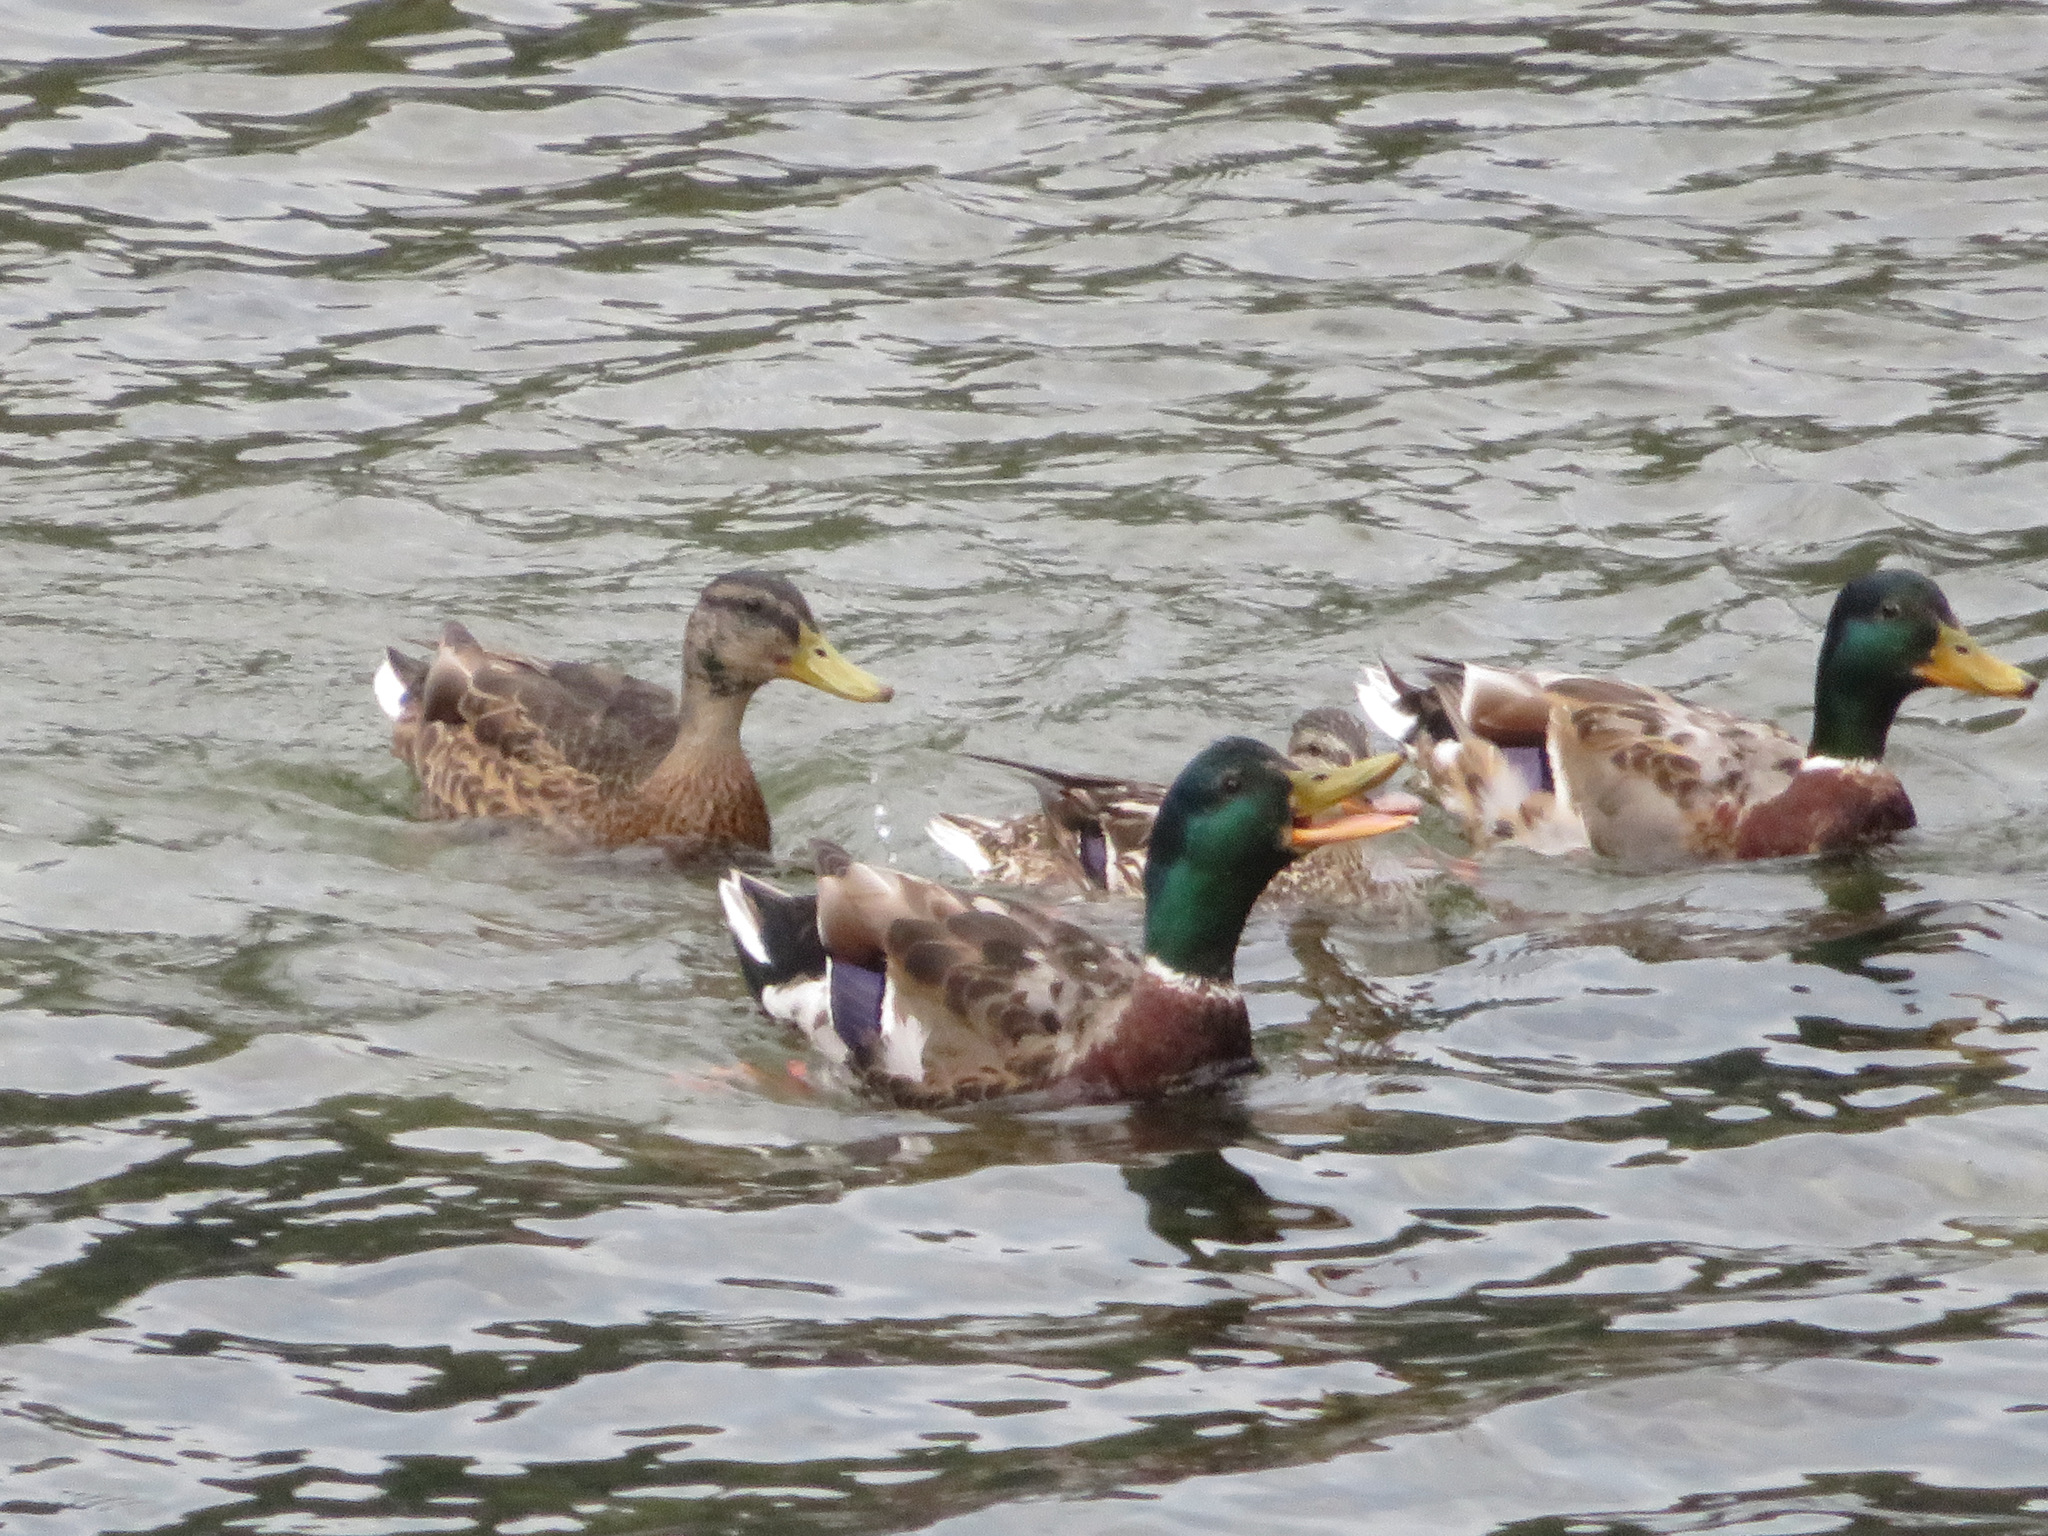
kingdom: Animalia
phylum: Chordata
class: Aves
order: Anseriformes
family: Anatidae
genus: Anas
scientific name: Anas platyrhynchos
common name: Mallard
